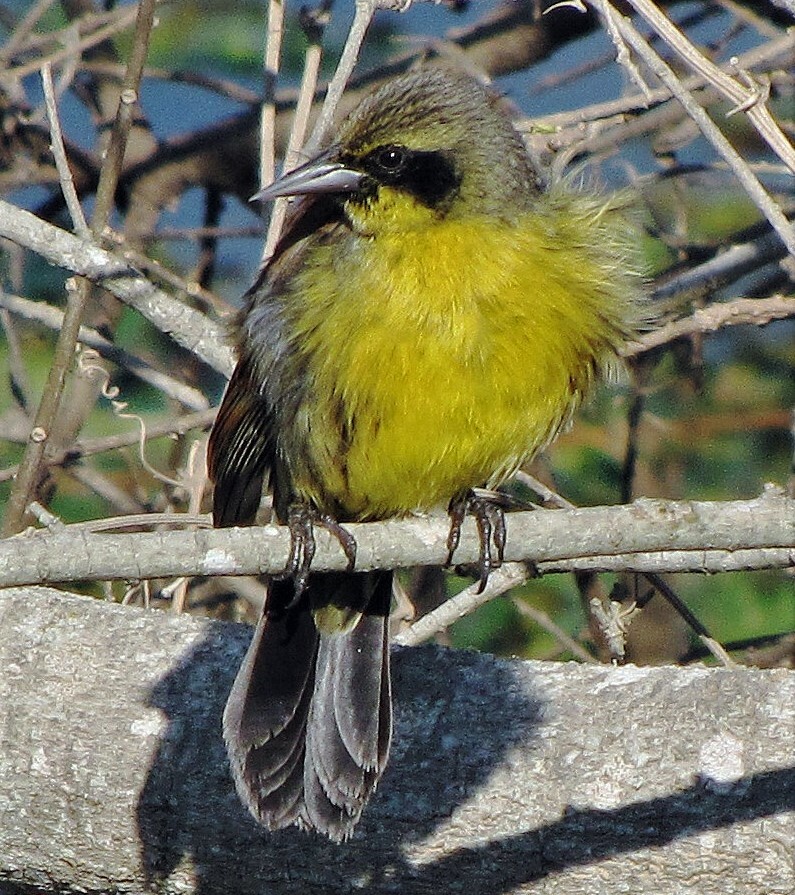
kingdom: Animalia
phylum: Chordata
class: Aves
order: Passeriformes
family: Icteridae
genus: Agelasticus
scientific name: Agelasticus cyanopus
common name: Unicolored blackbird
